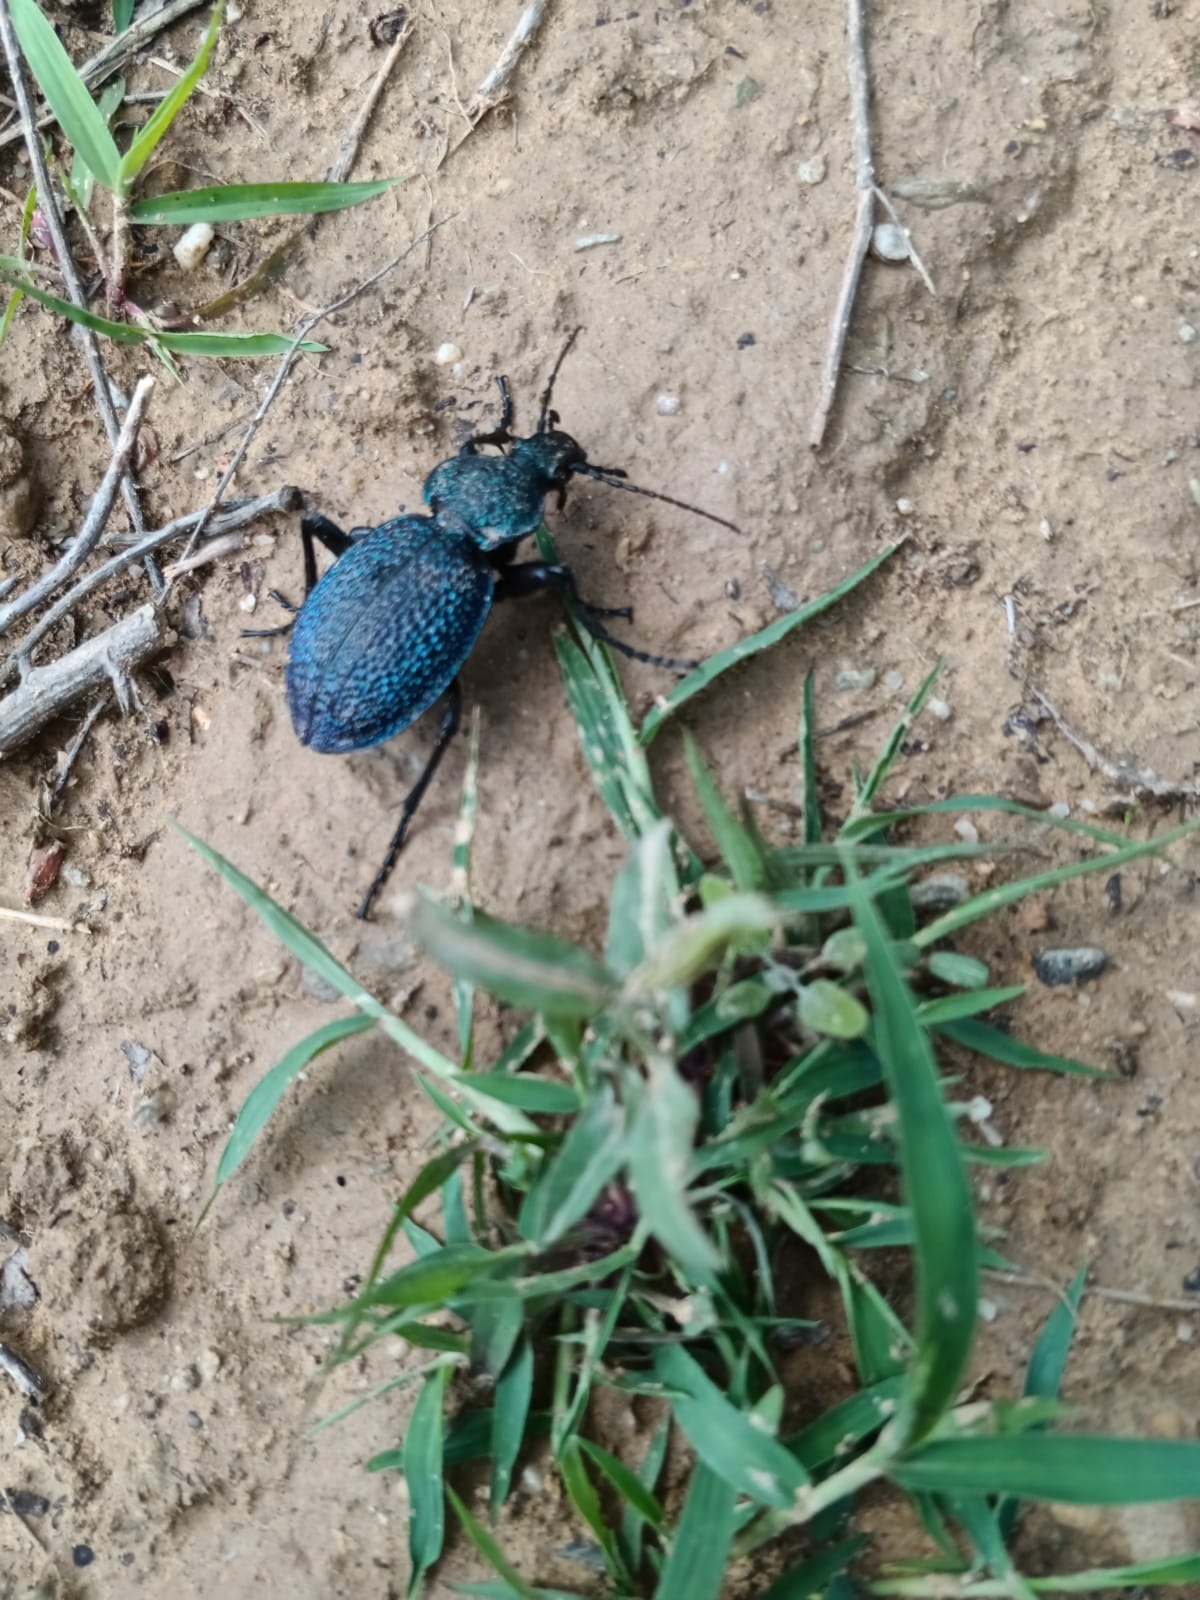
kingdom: Animalia
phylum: Arthropoda
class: Insecta
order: Coleoptera
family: Carabidae
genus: Carabus
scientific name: Carabus scabrosus
